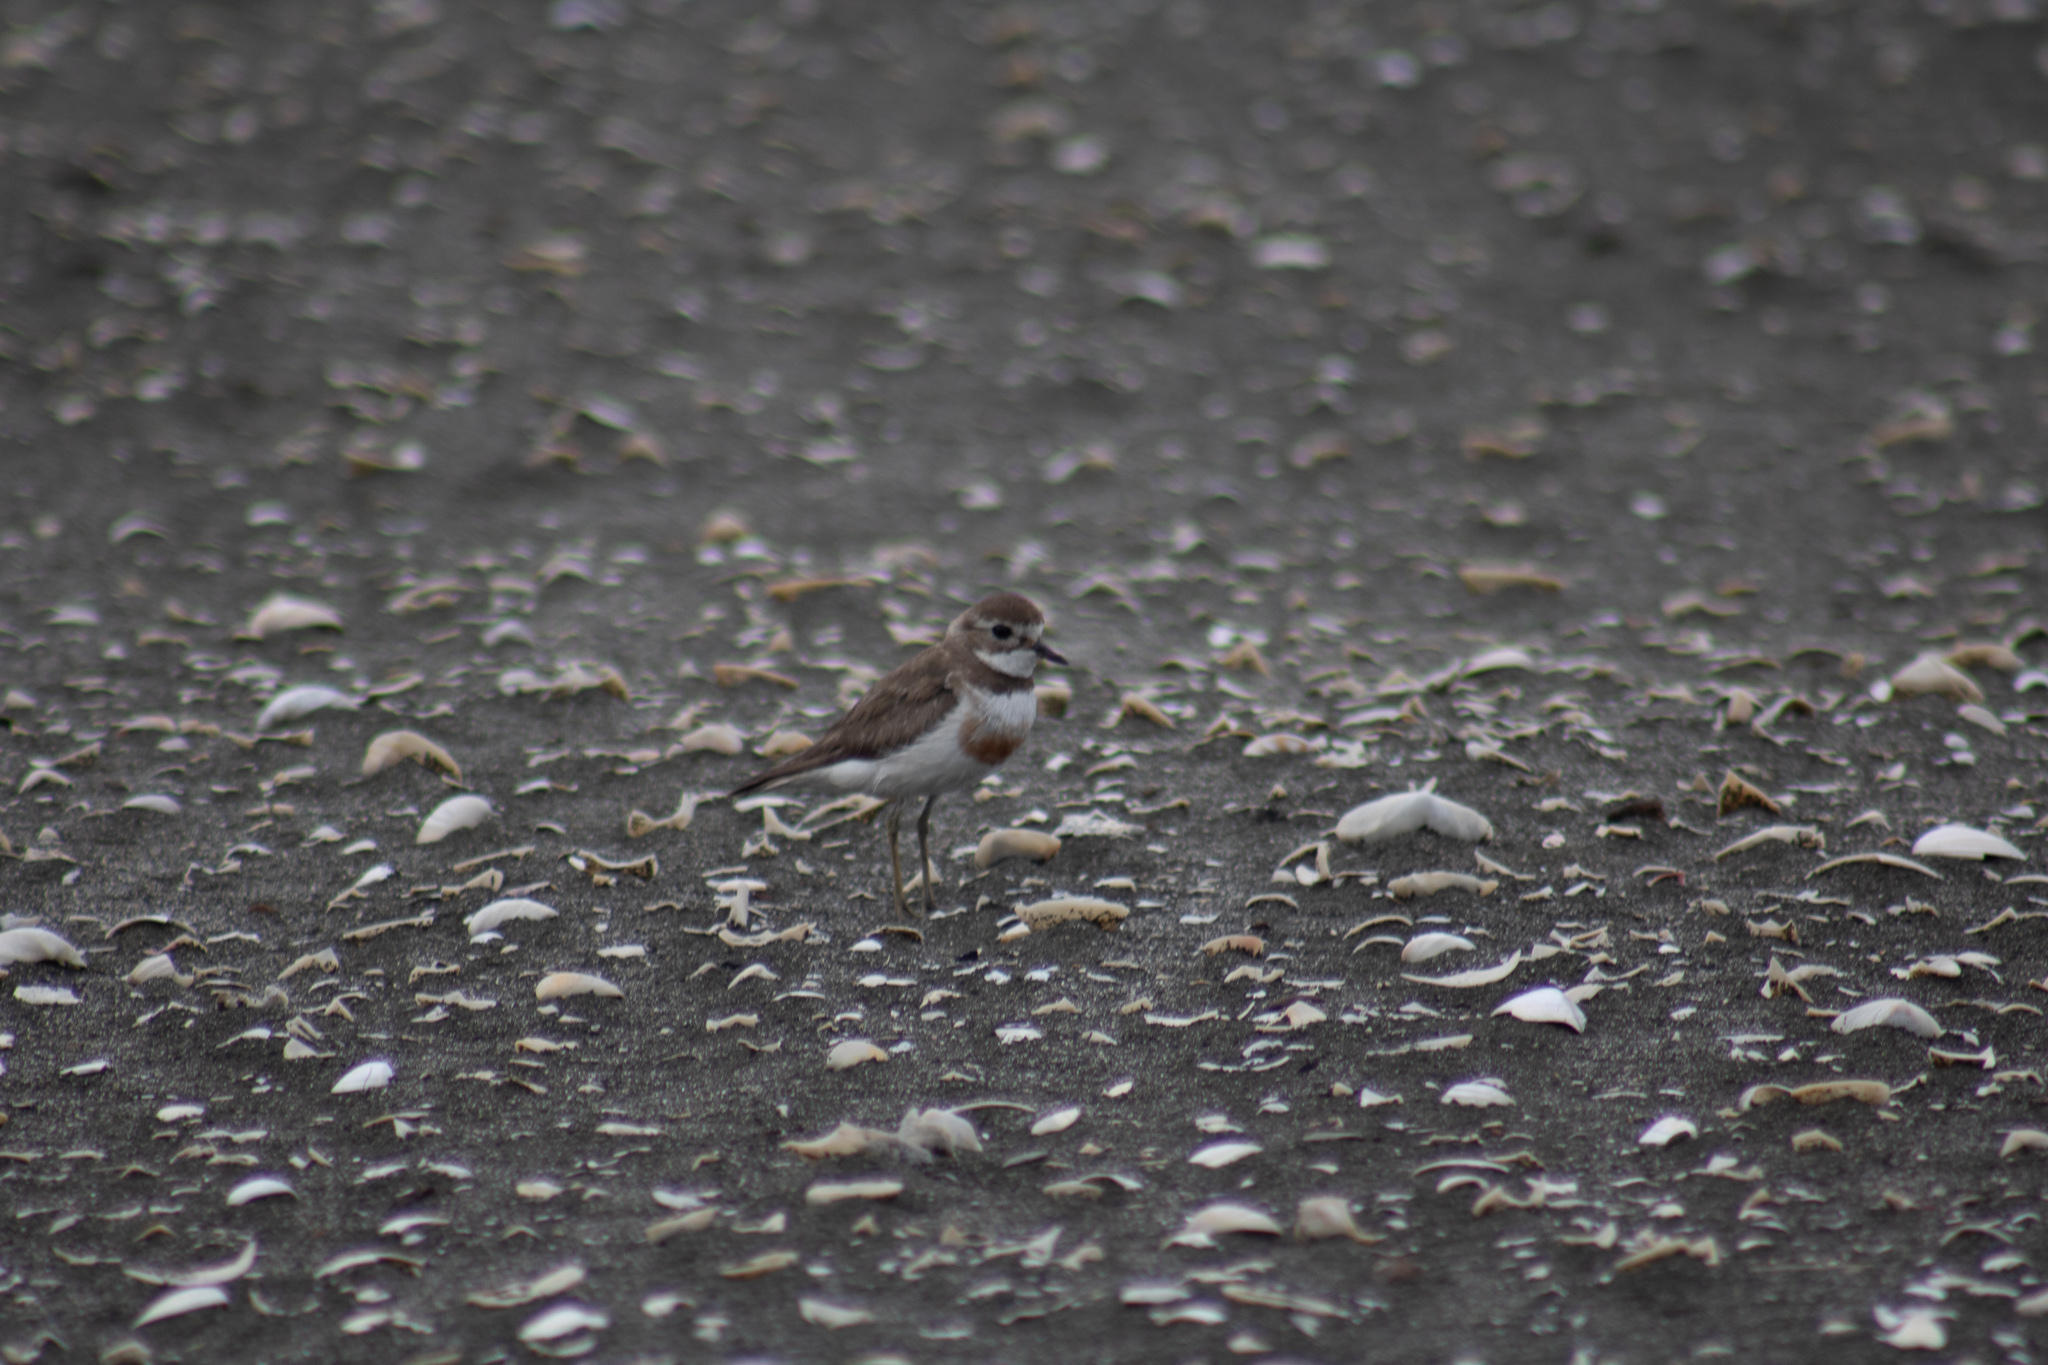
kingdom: Animalia
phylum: Chordata
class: Aves
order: Charadriiformes
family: Charadriidae
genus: Anarhynchus
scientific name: Anarhynchus
